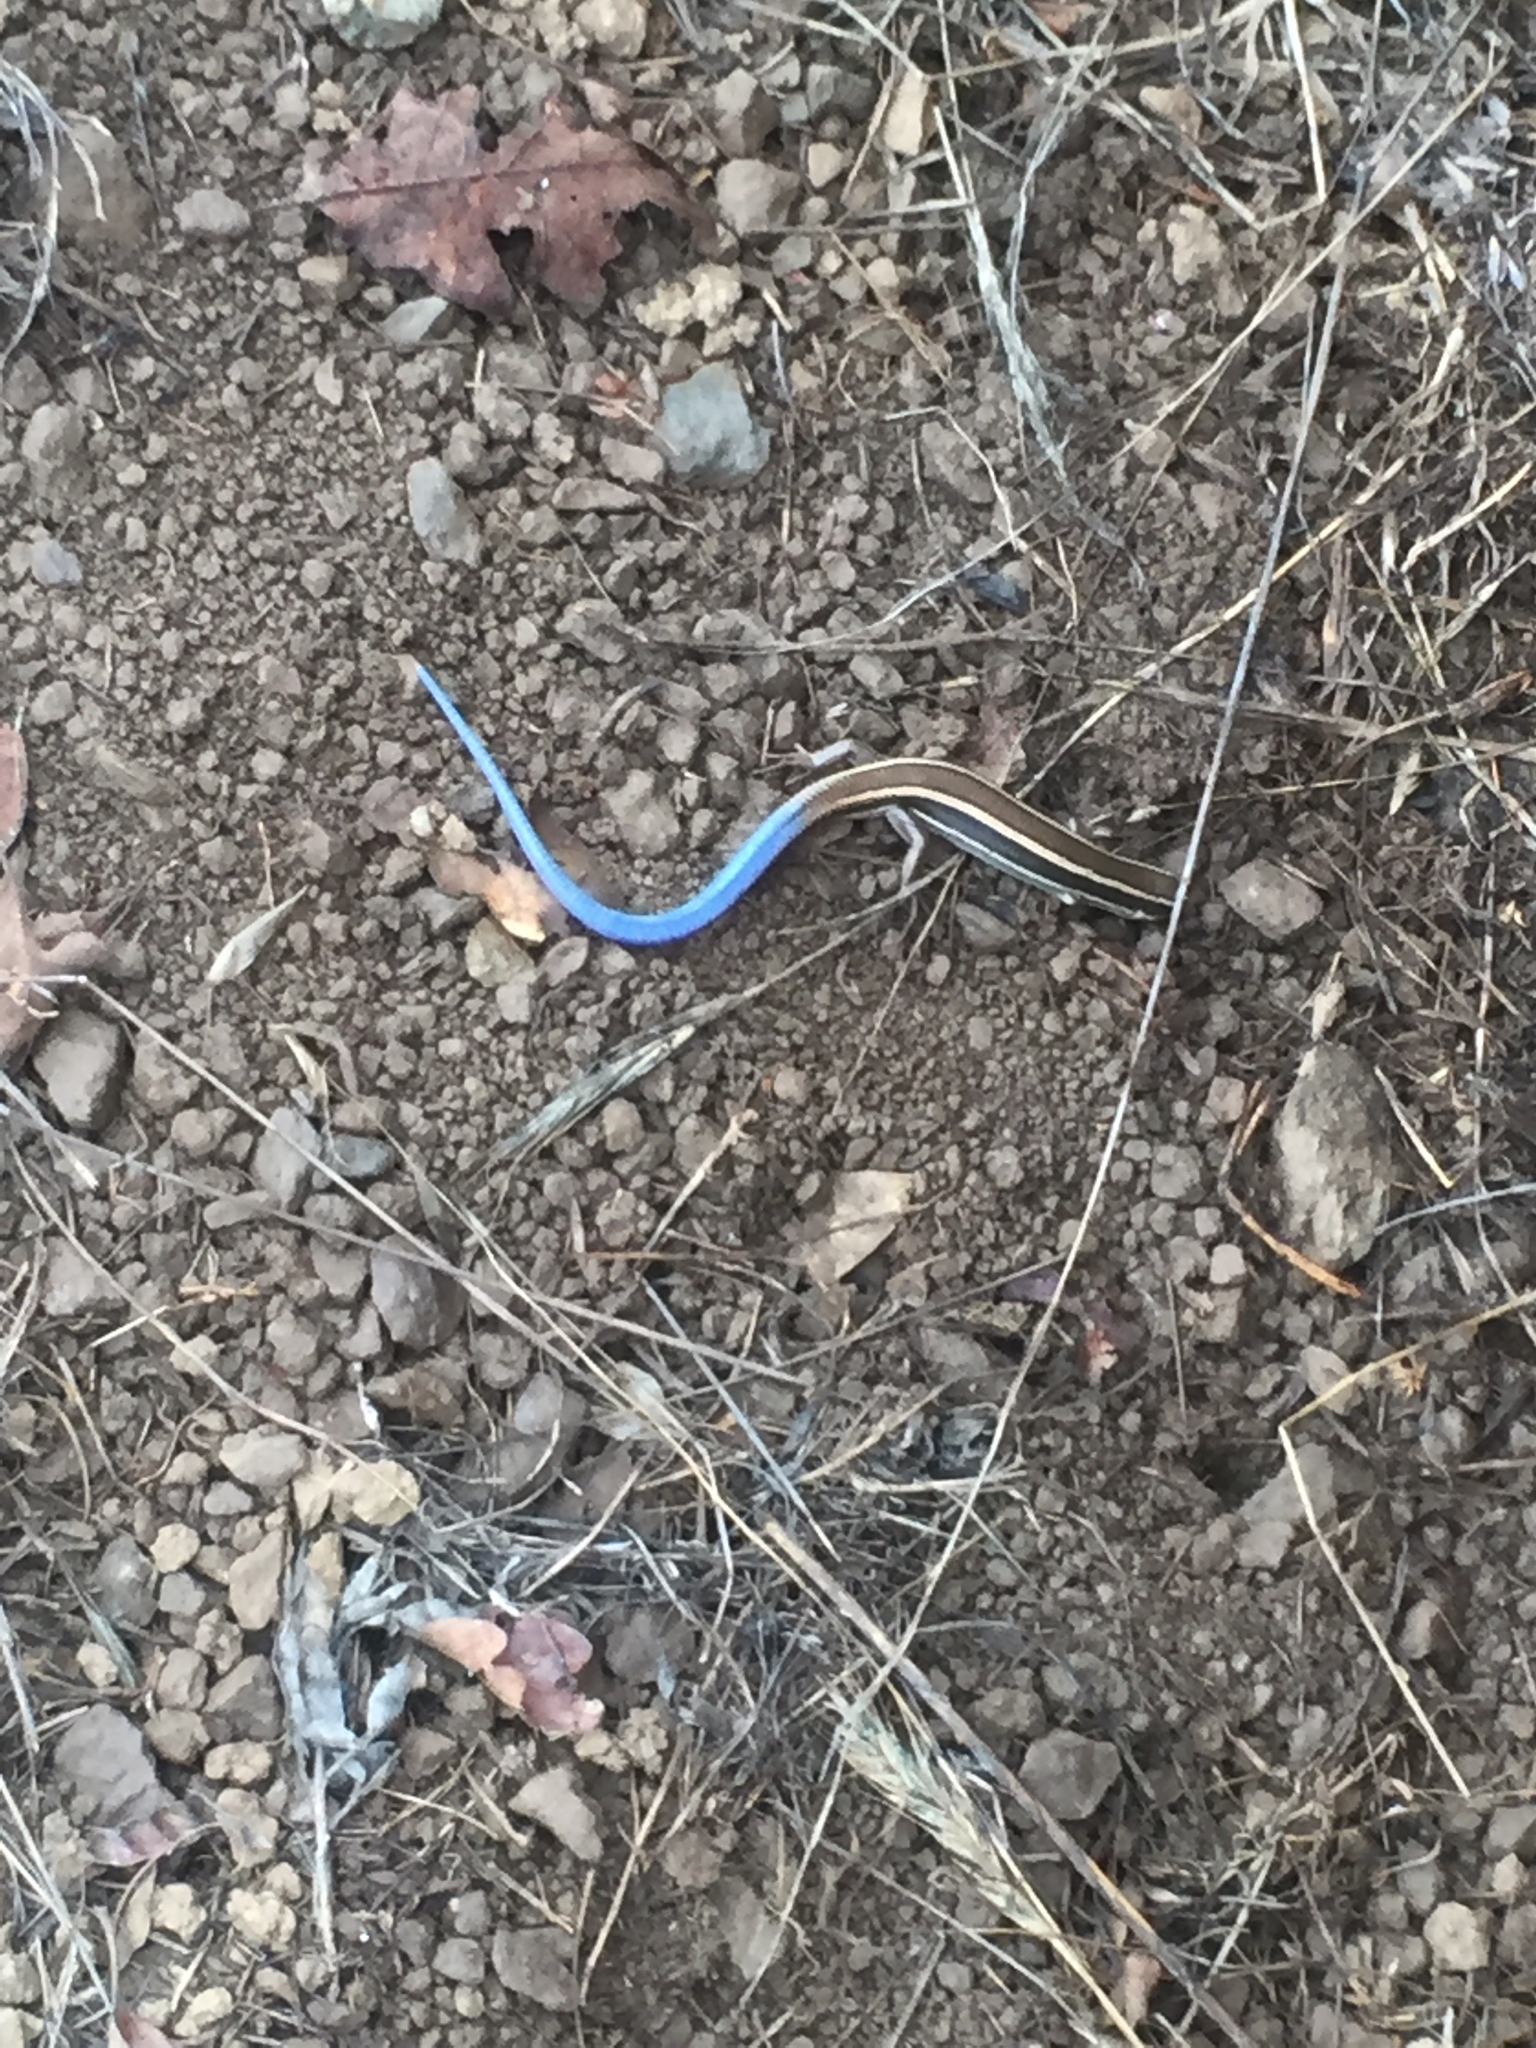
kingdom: Animalia
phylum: Chordata
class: Squamata
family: Scincidae
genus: Plestiodon
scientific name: Plestiodon skiltonianus
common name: Coronado island skink [interparietalis]
